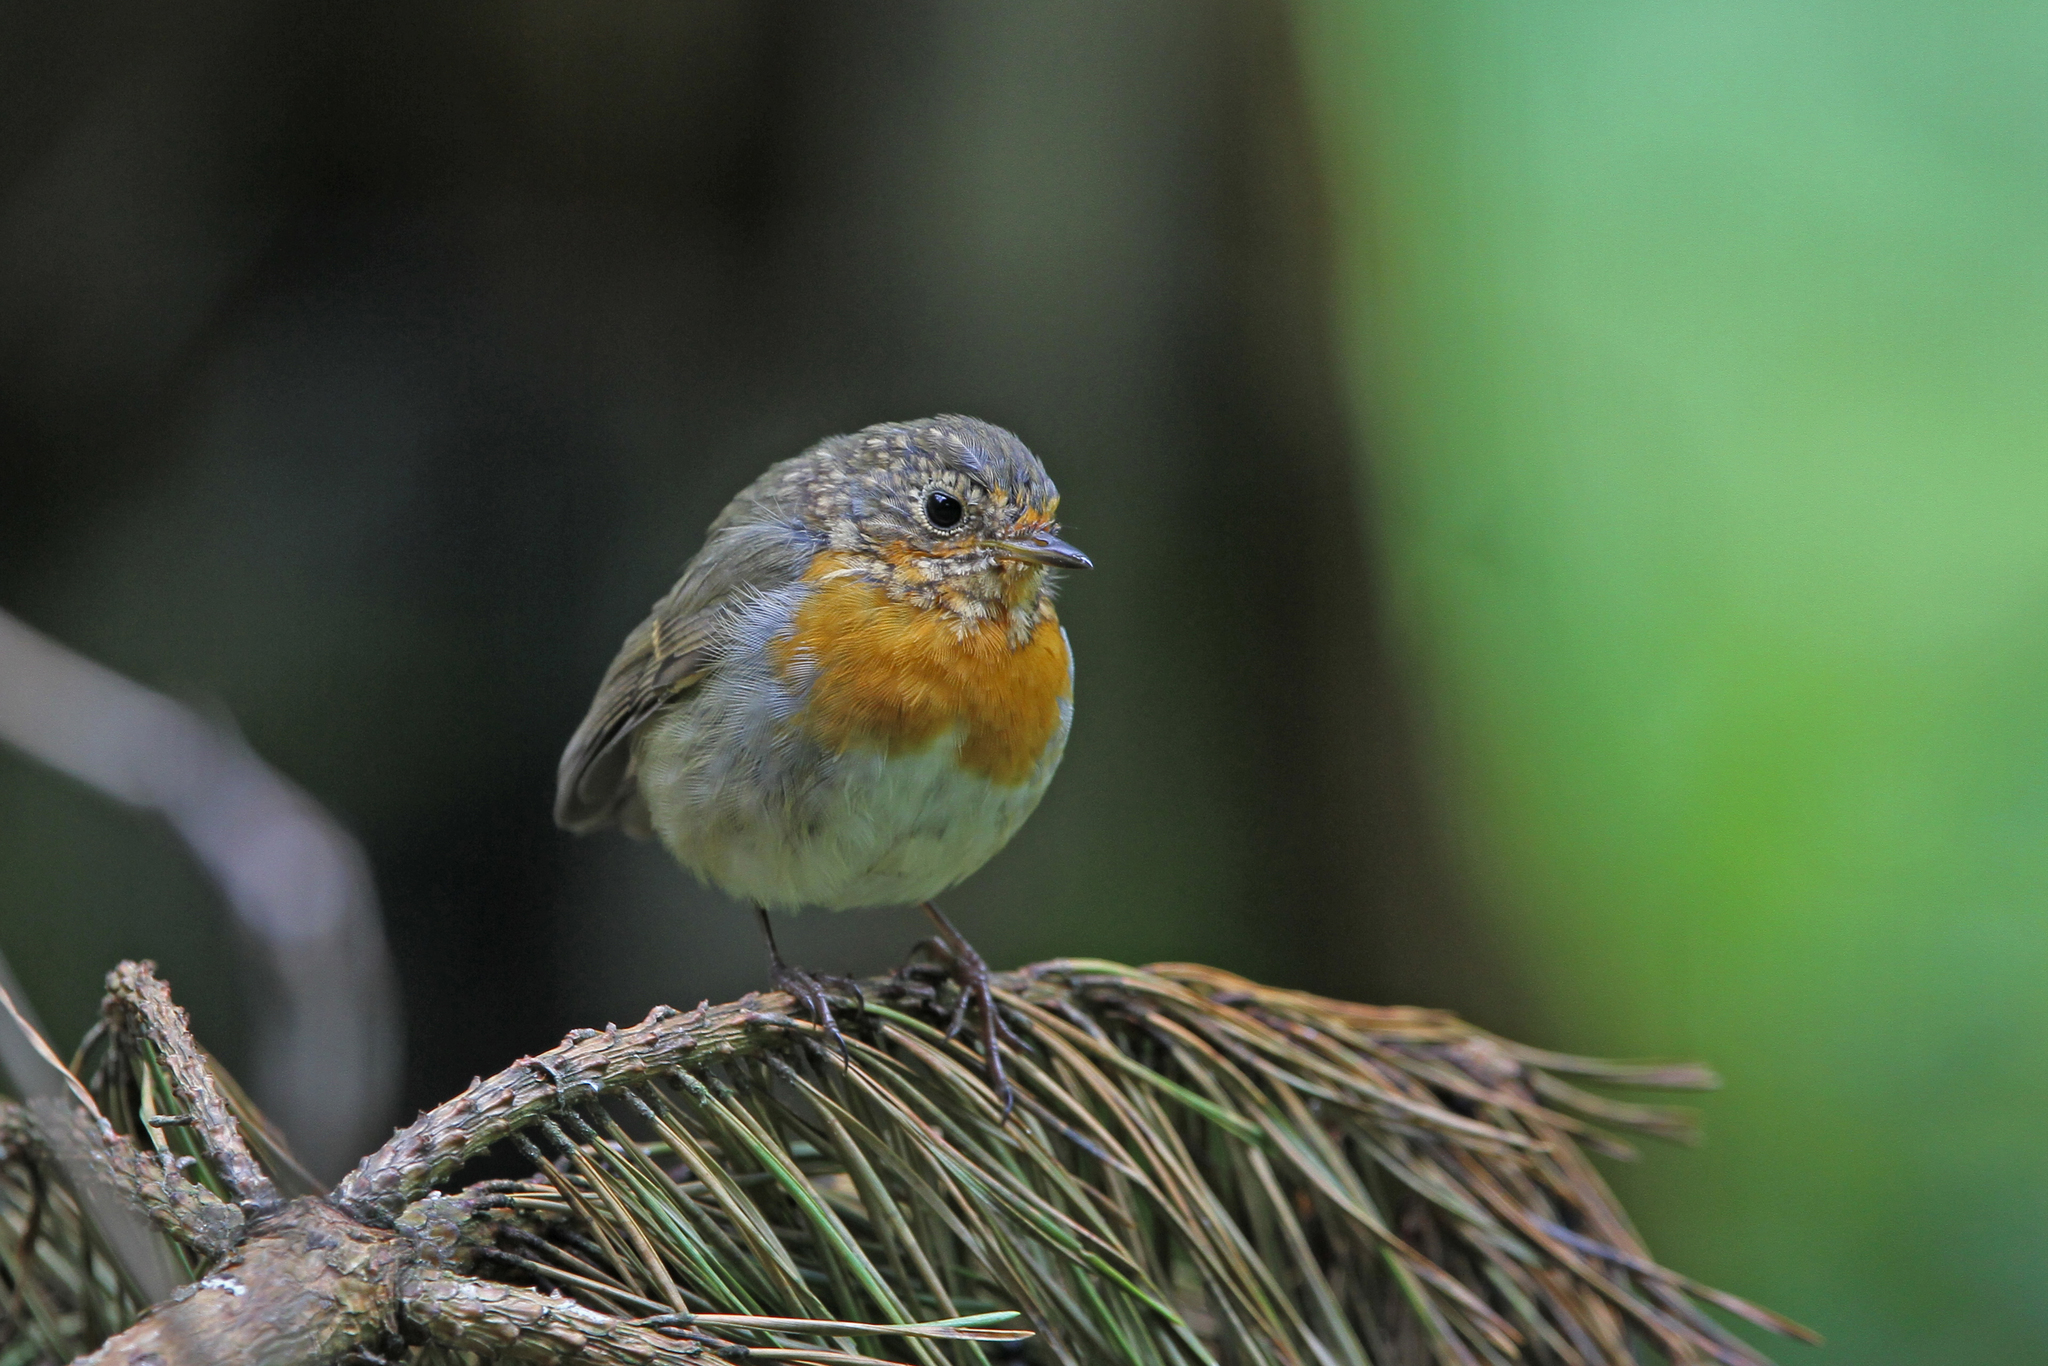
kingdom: Animalia
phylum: Chordata
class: Aves
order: Passeriformes
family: Muscicapidae
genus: Erithacus
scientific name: Erithacus rubecula
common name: European robin
